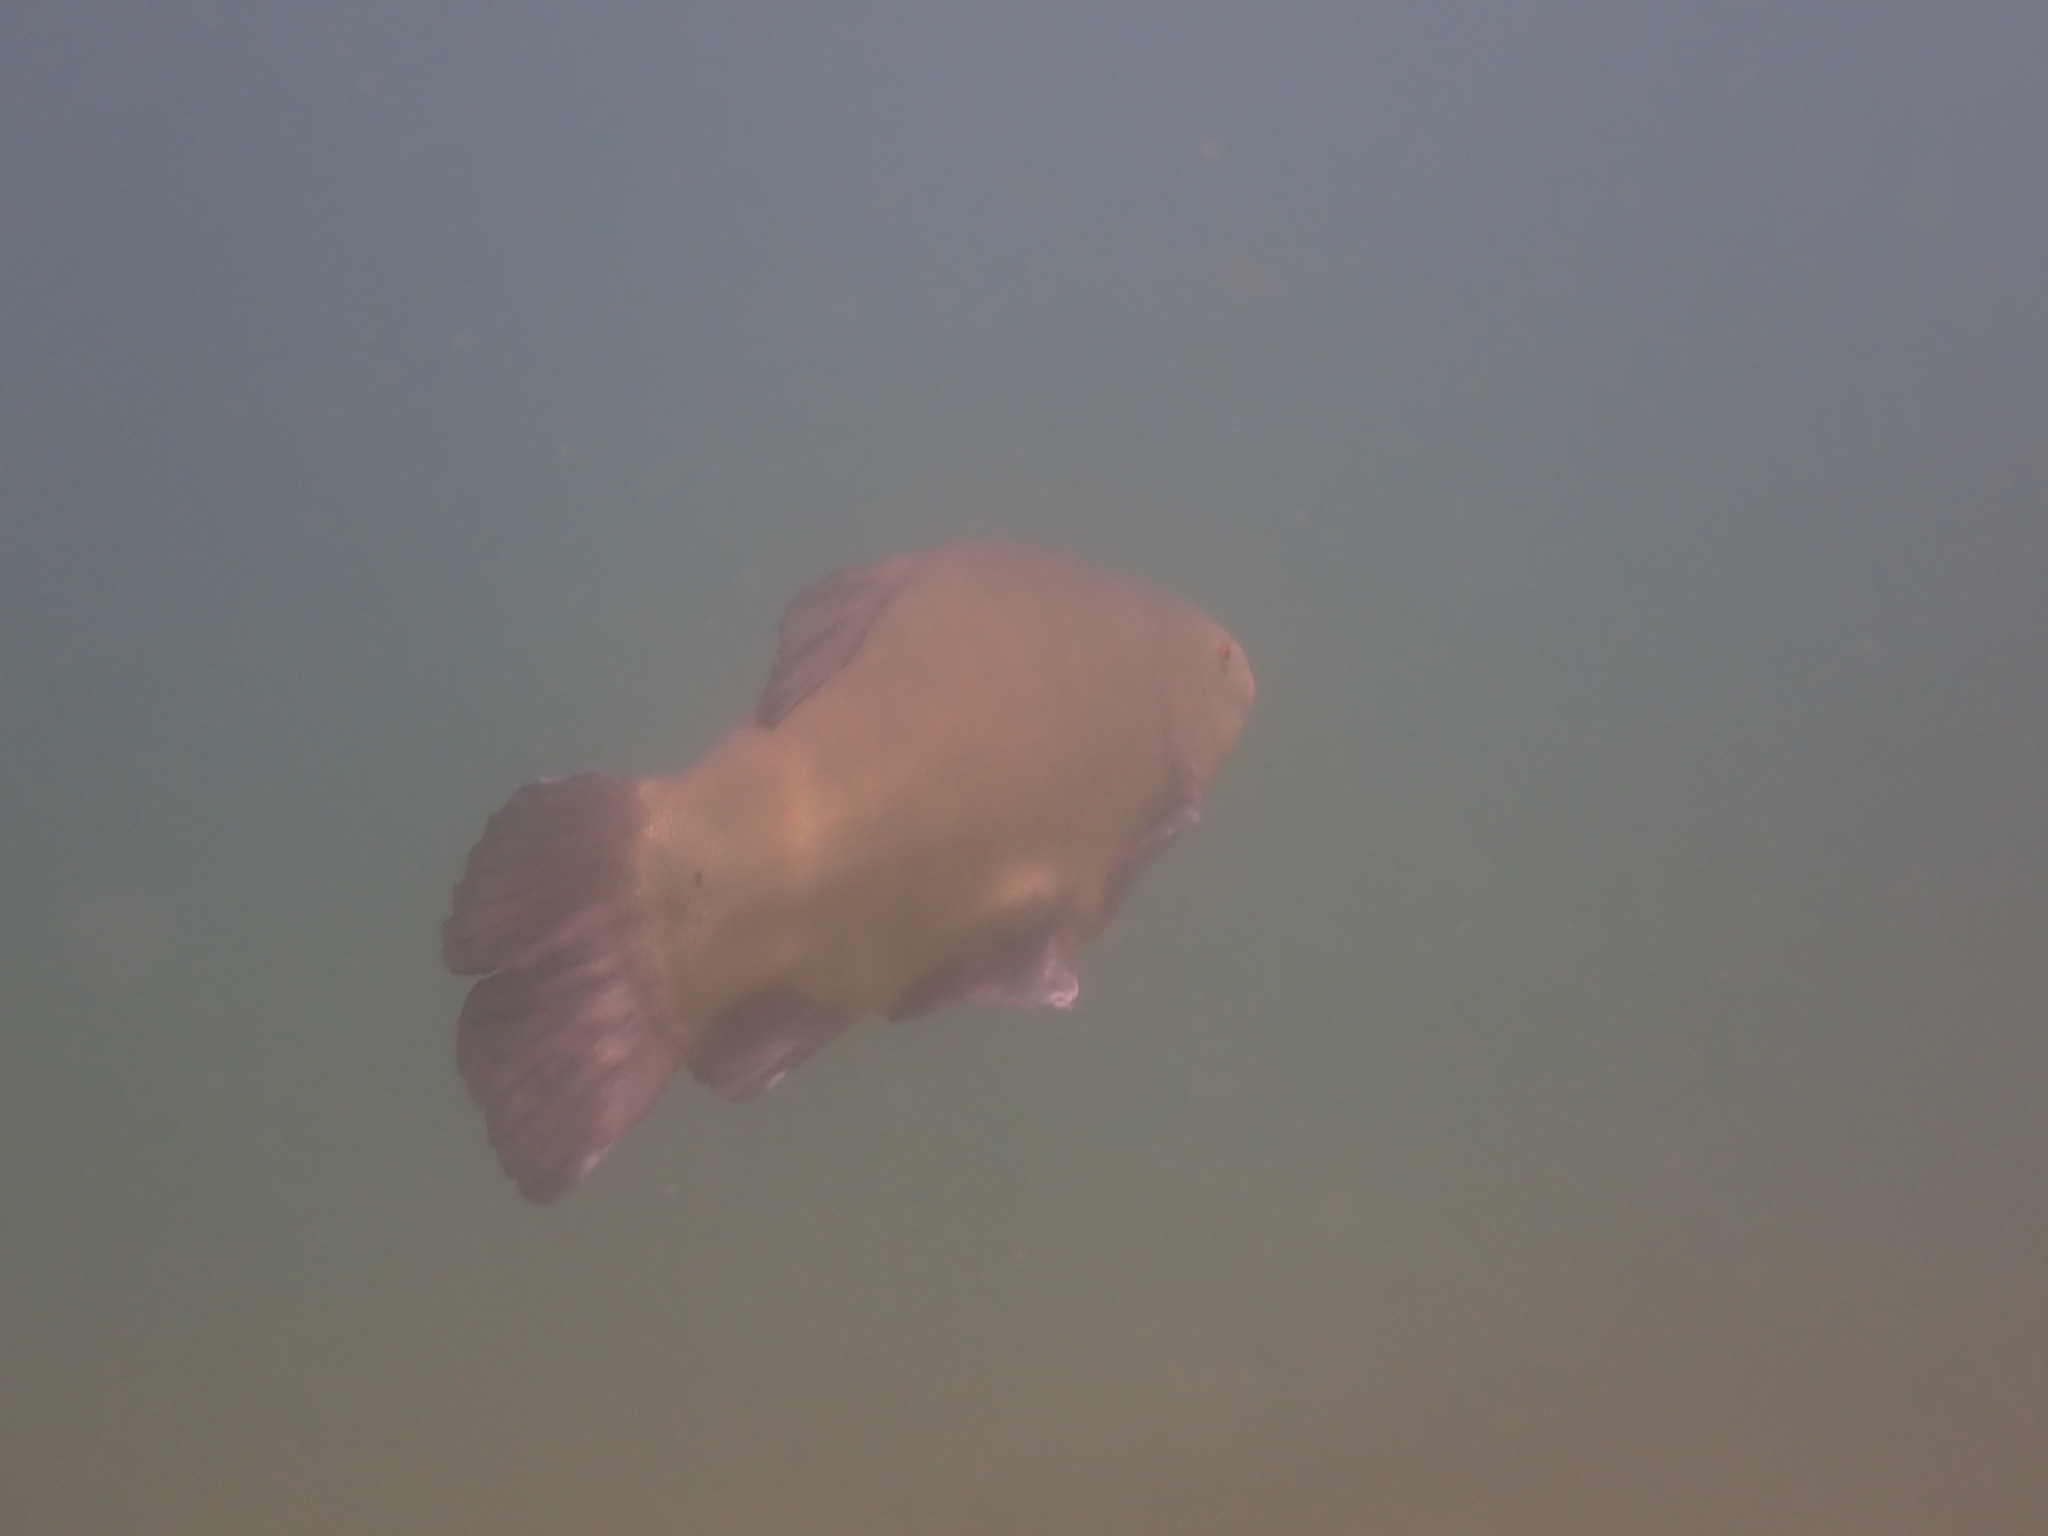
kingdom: Animalia
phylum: Chordata
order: Cypriniformes
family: Cyprinidae
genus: Tinca
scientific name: Tinca tinca
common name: Tench
